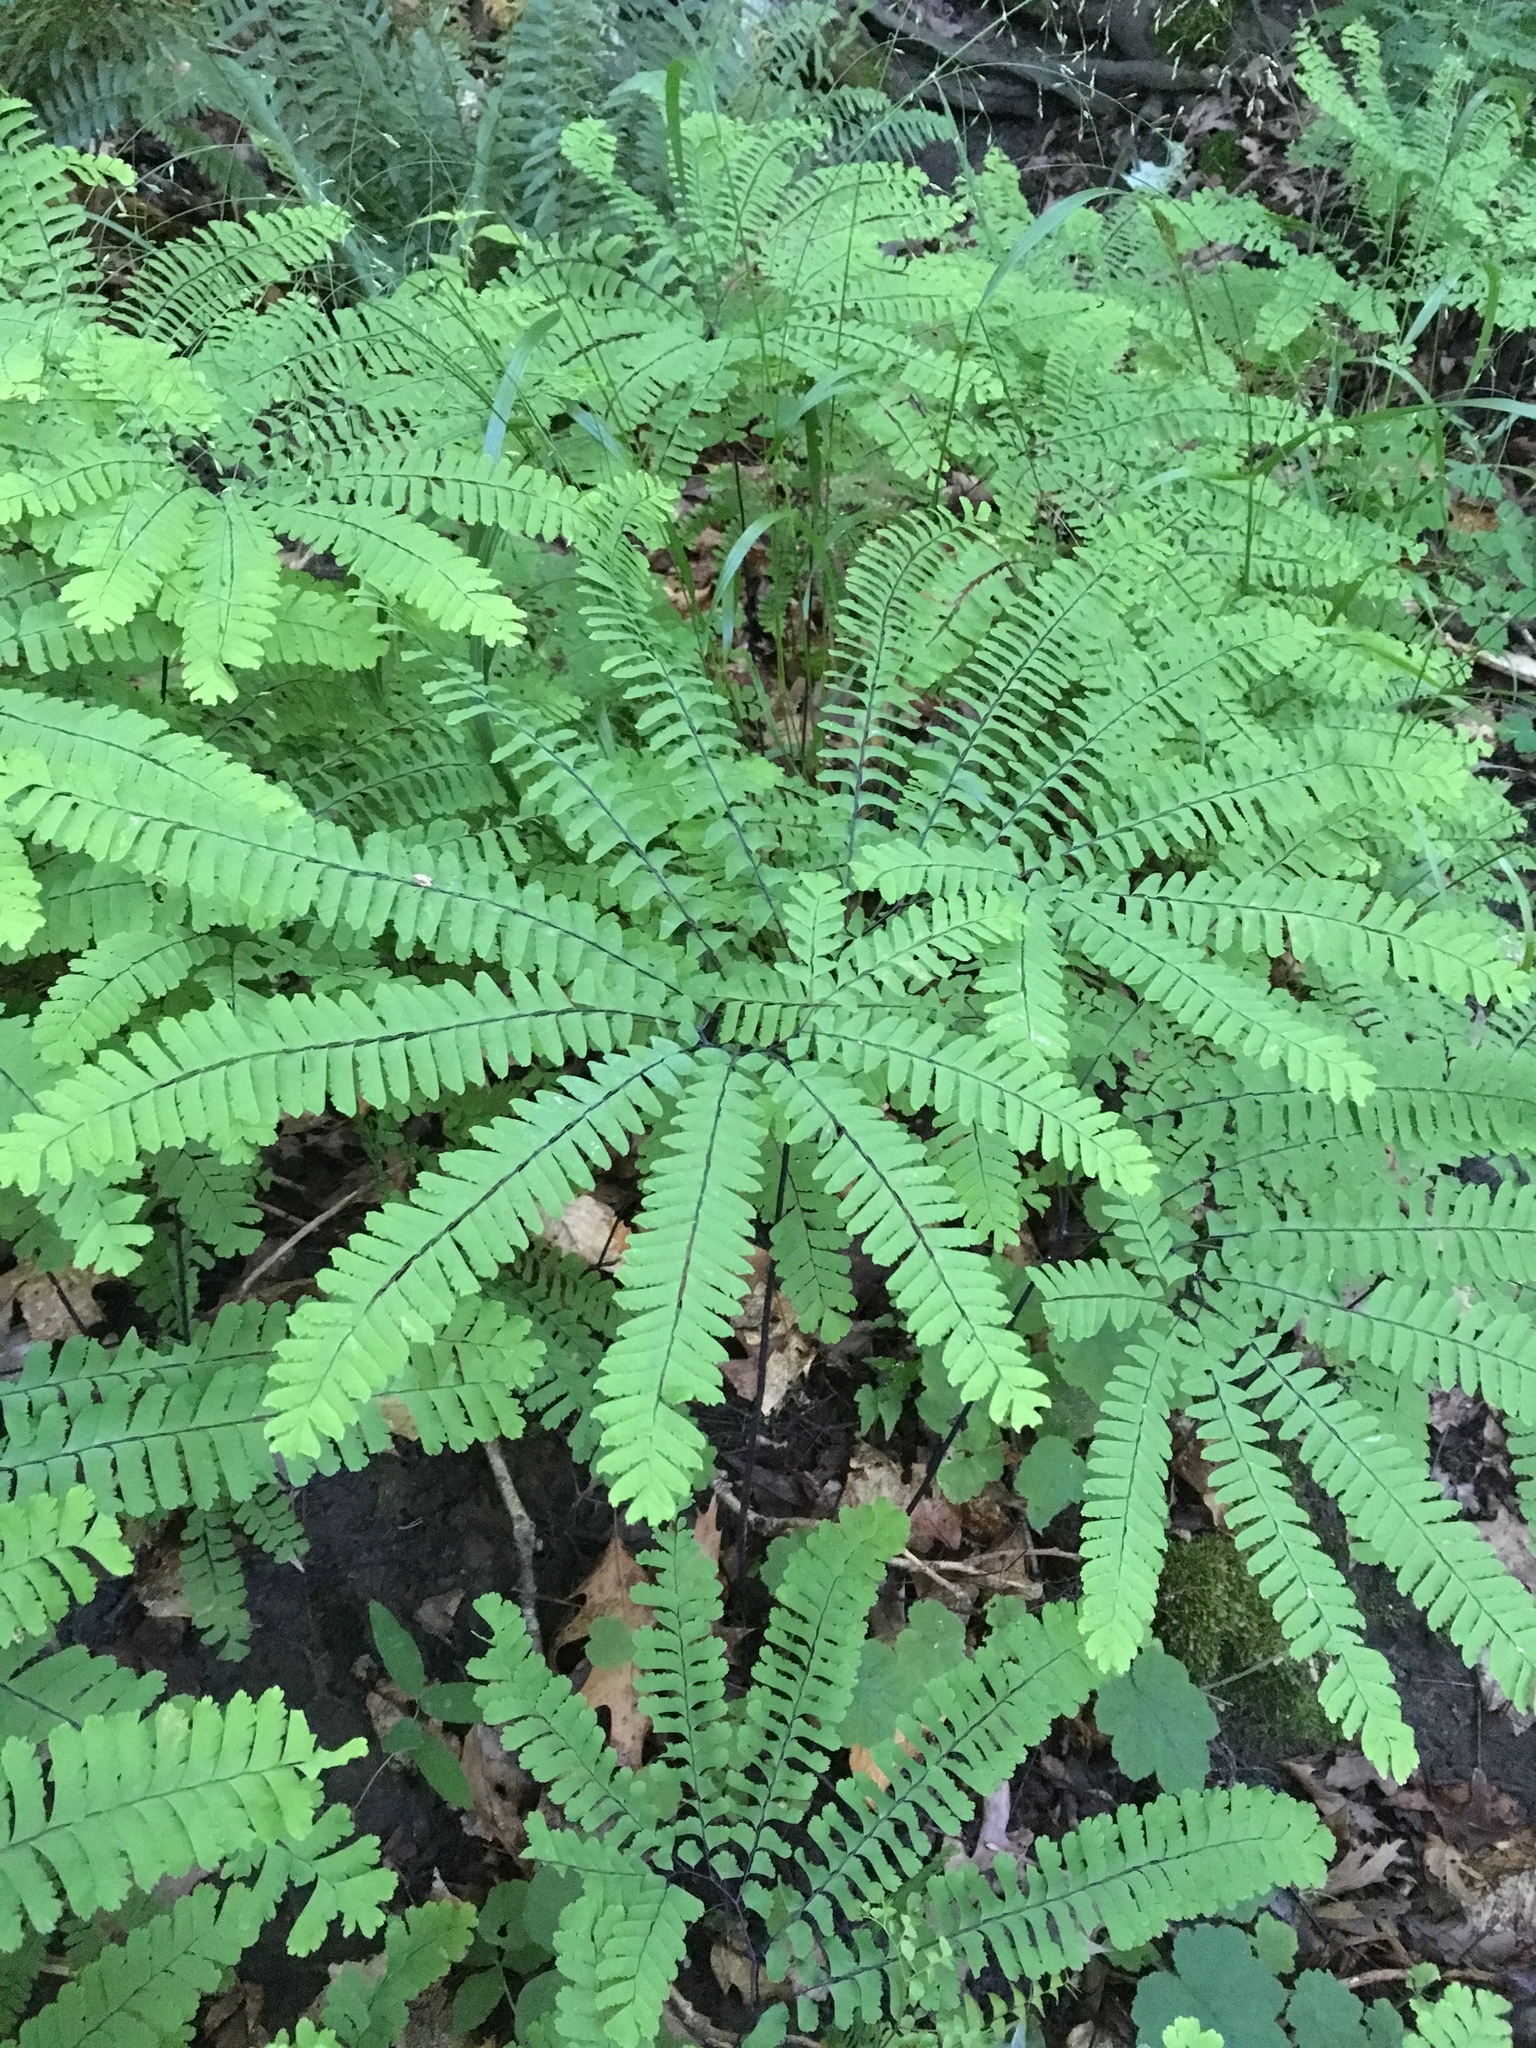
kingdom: Plantae
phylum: Tracheophyta
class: Polypodiopsida
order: Polypodiales
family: Pteridaceae
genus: Adiantum
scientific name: Adiantum pedatum
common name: Five-finger fern
